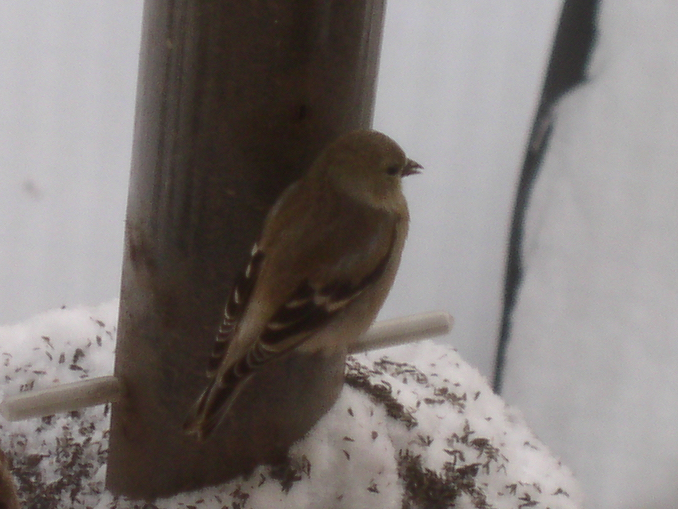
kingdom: Animalia
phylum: Chordata
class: Aves
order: Passeriformes
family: Fringillidae
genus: Spinus
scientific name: Spinus tristis
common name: American goldfinch
